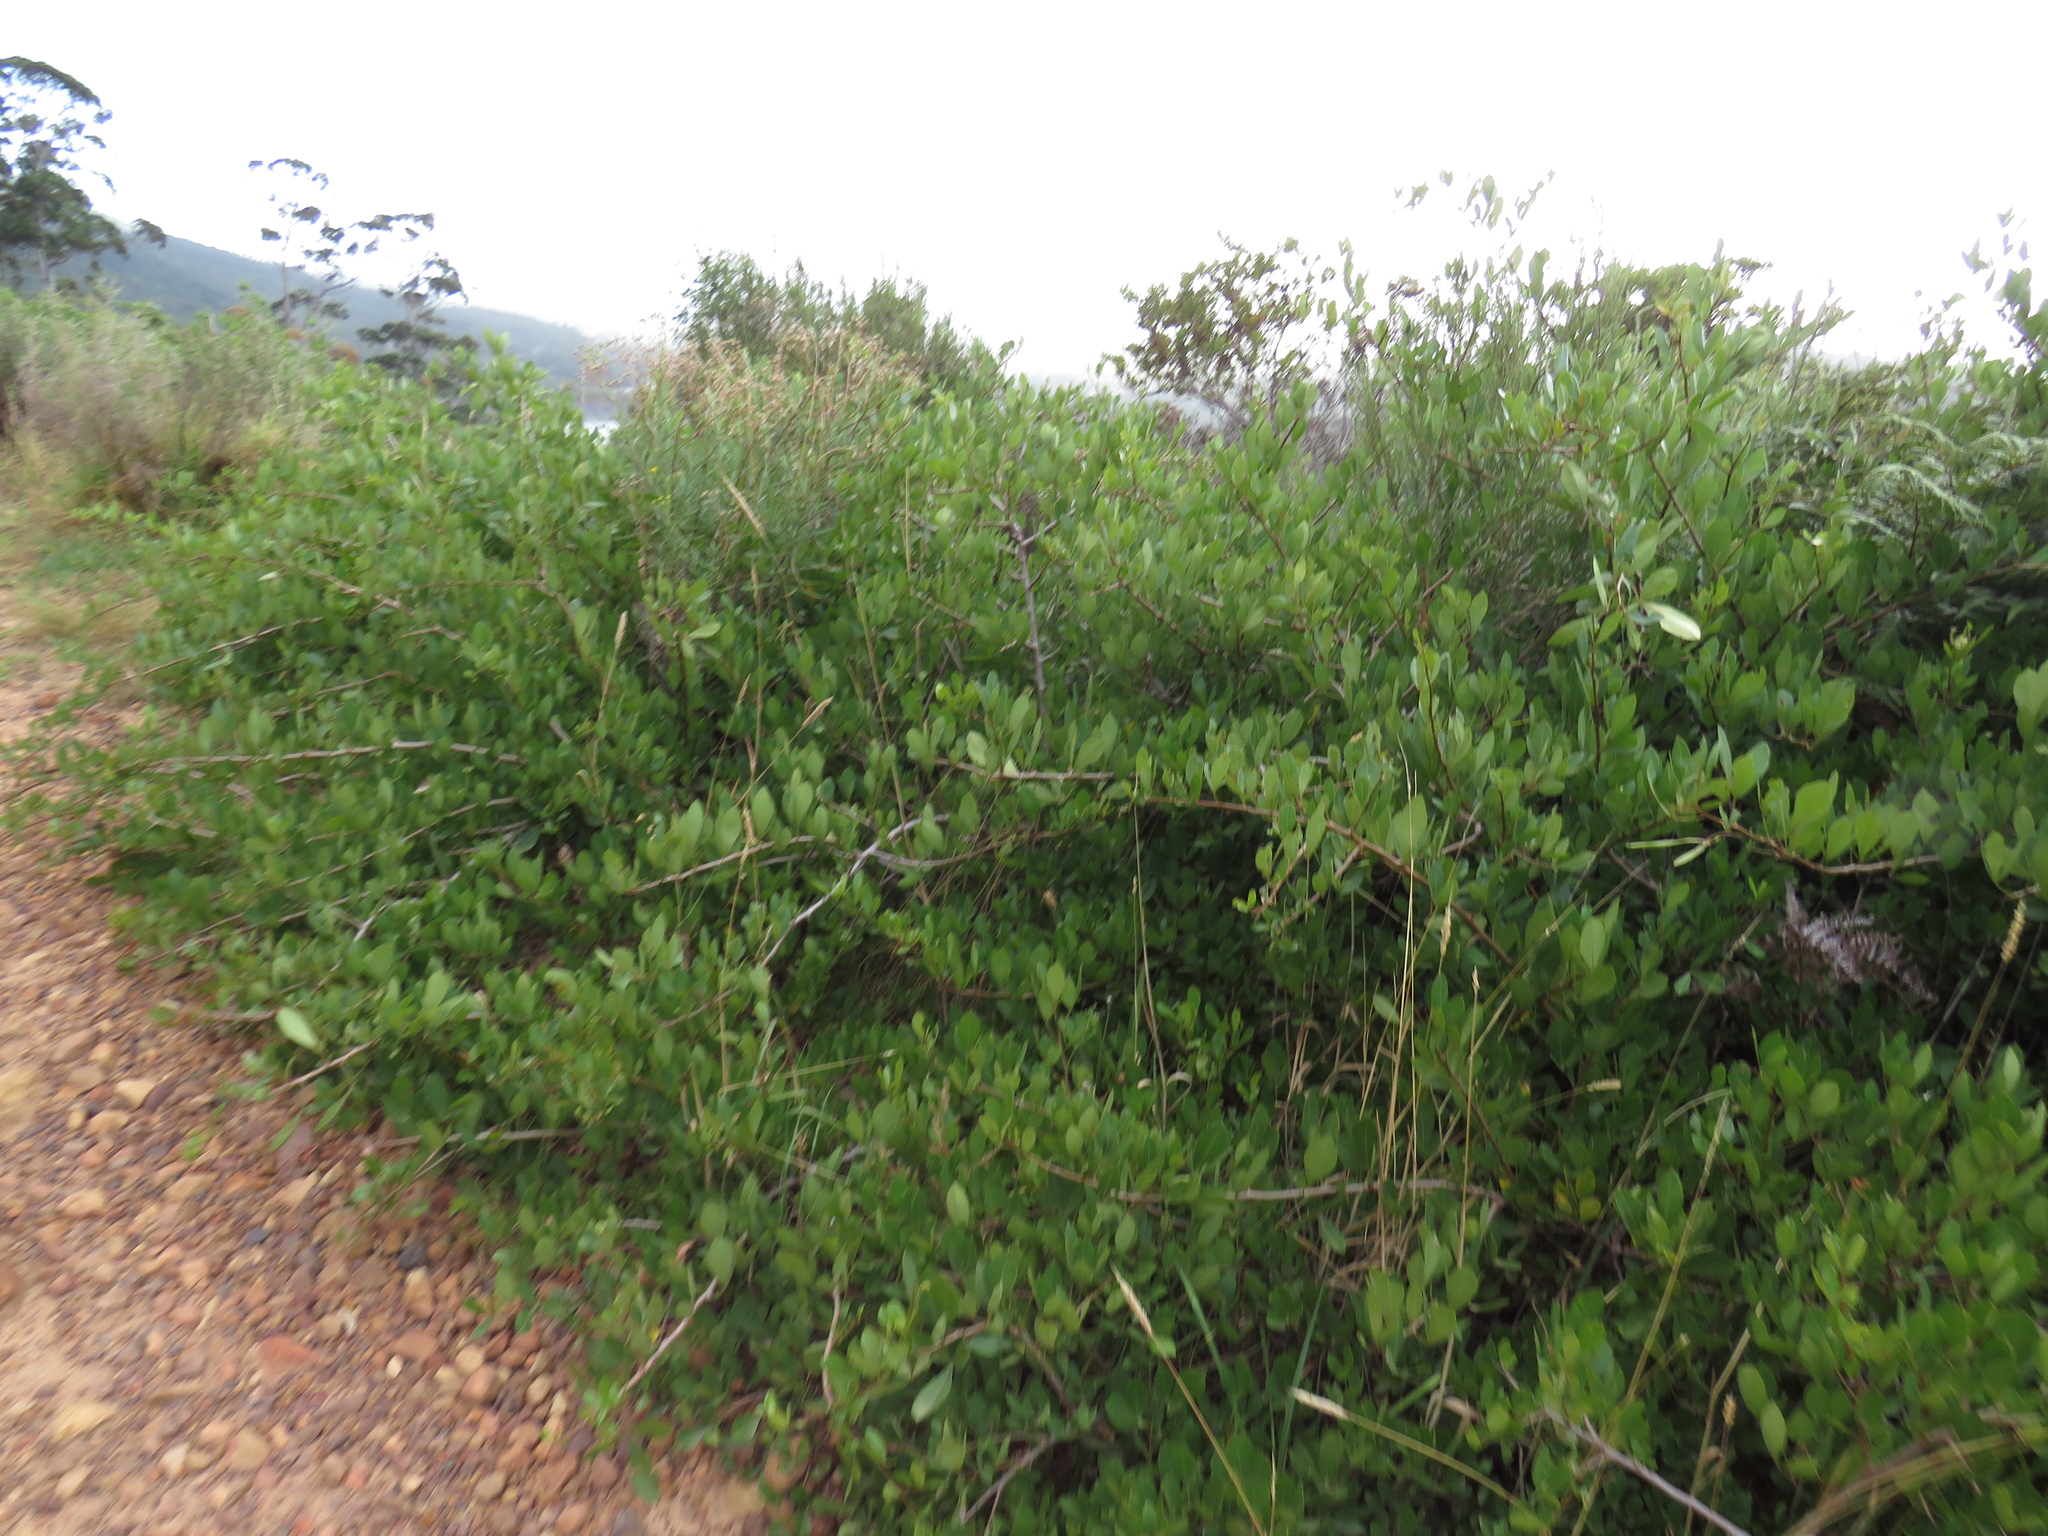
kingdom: Plantae
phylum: Tracheophyta
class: Magnoliopsida
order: Sapindales
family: Anacardiaceae
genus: Searsia
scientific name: Searsia laevigata
